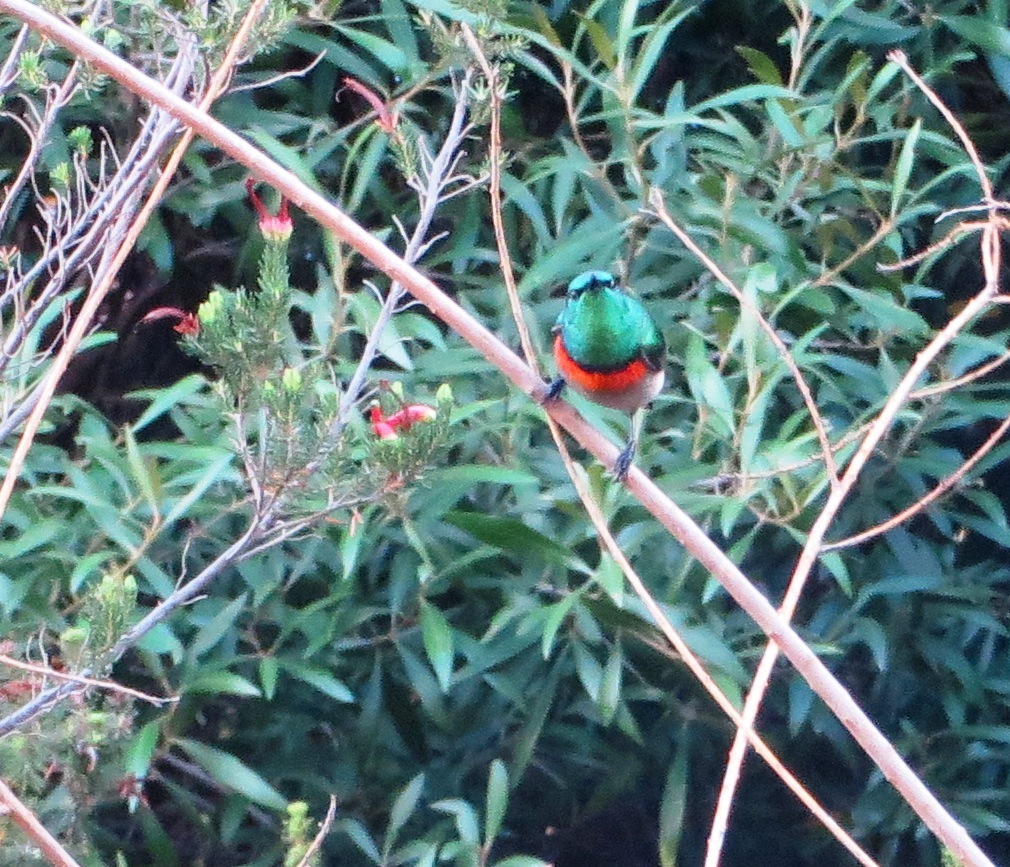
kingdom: Animalia
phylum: Chordata
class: Aves
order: Passeriformes
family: Nectariniidae
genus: Cinnyris
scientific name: Cinnyris chalybeus
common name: Southern double-collared sunbird
